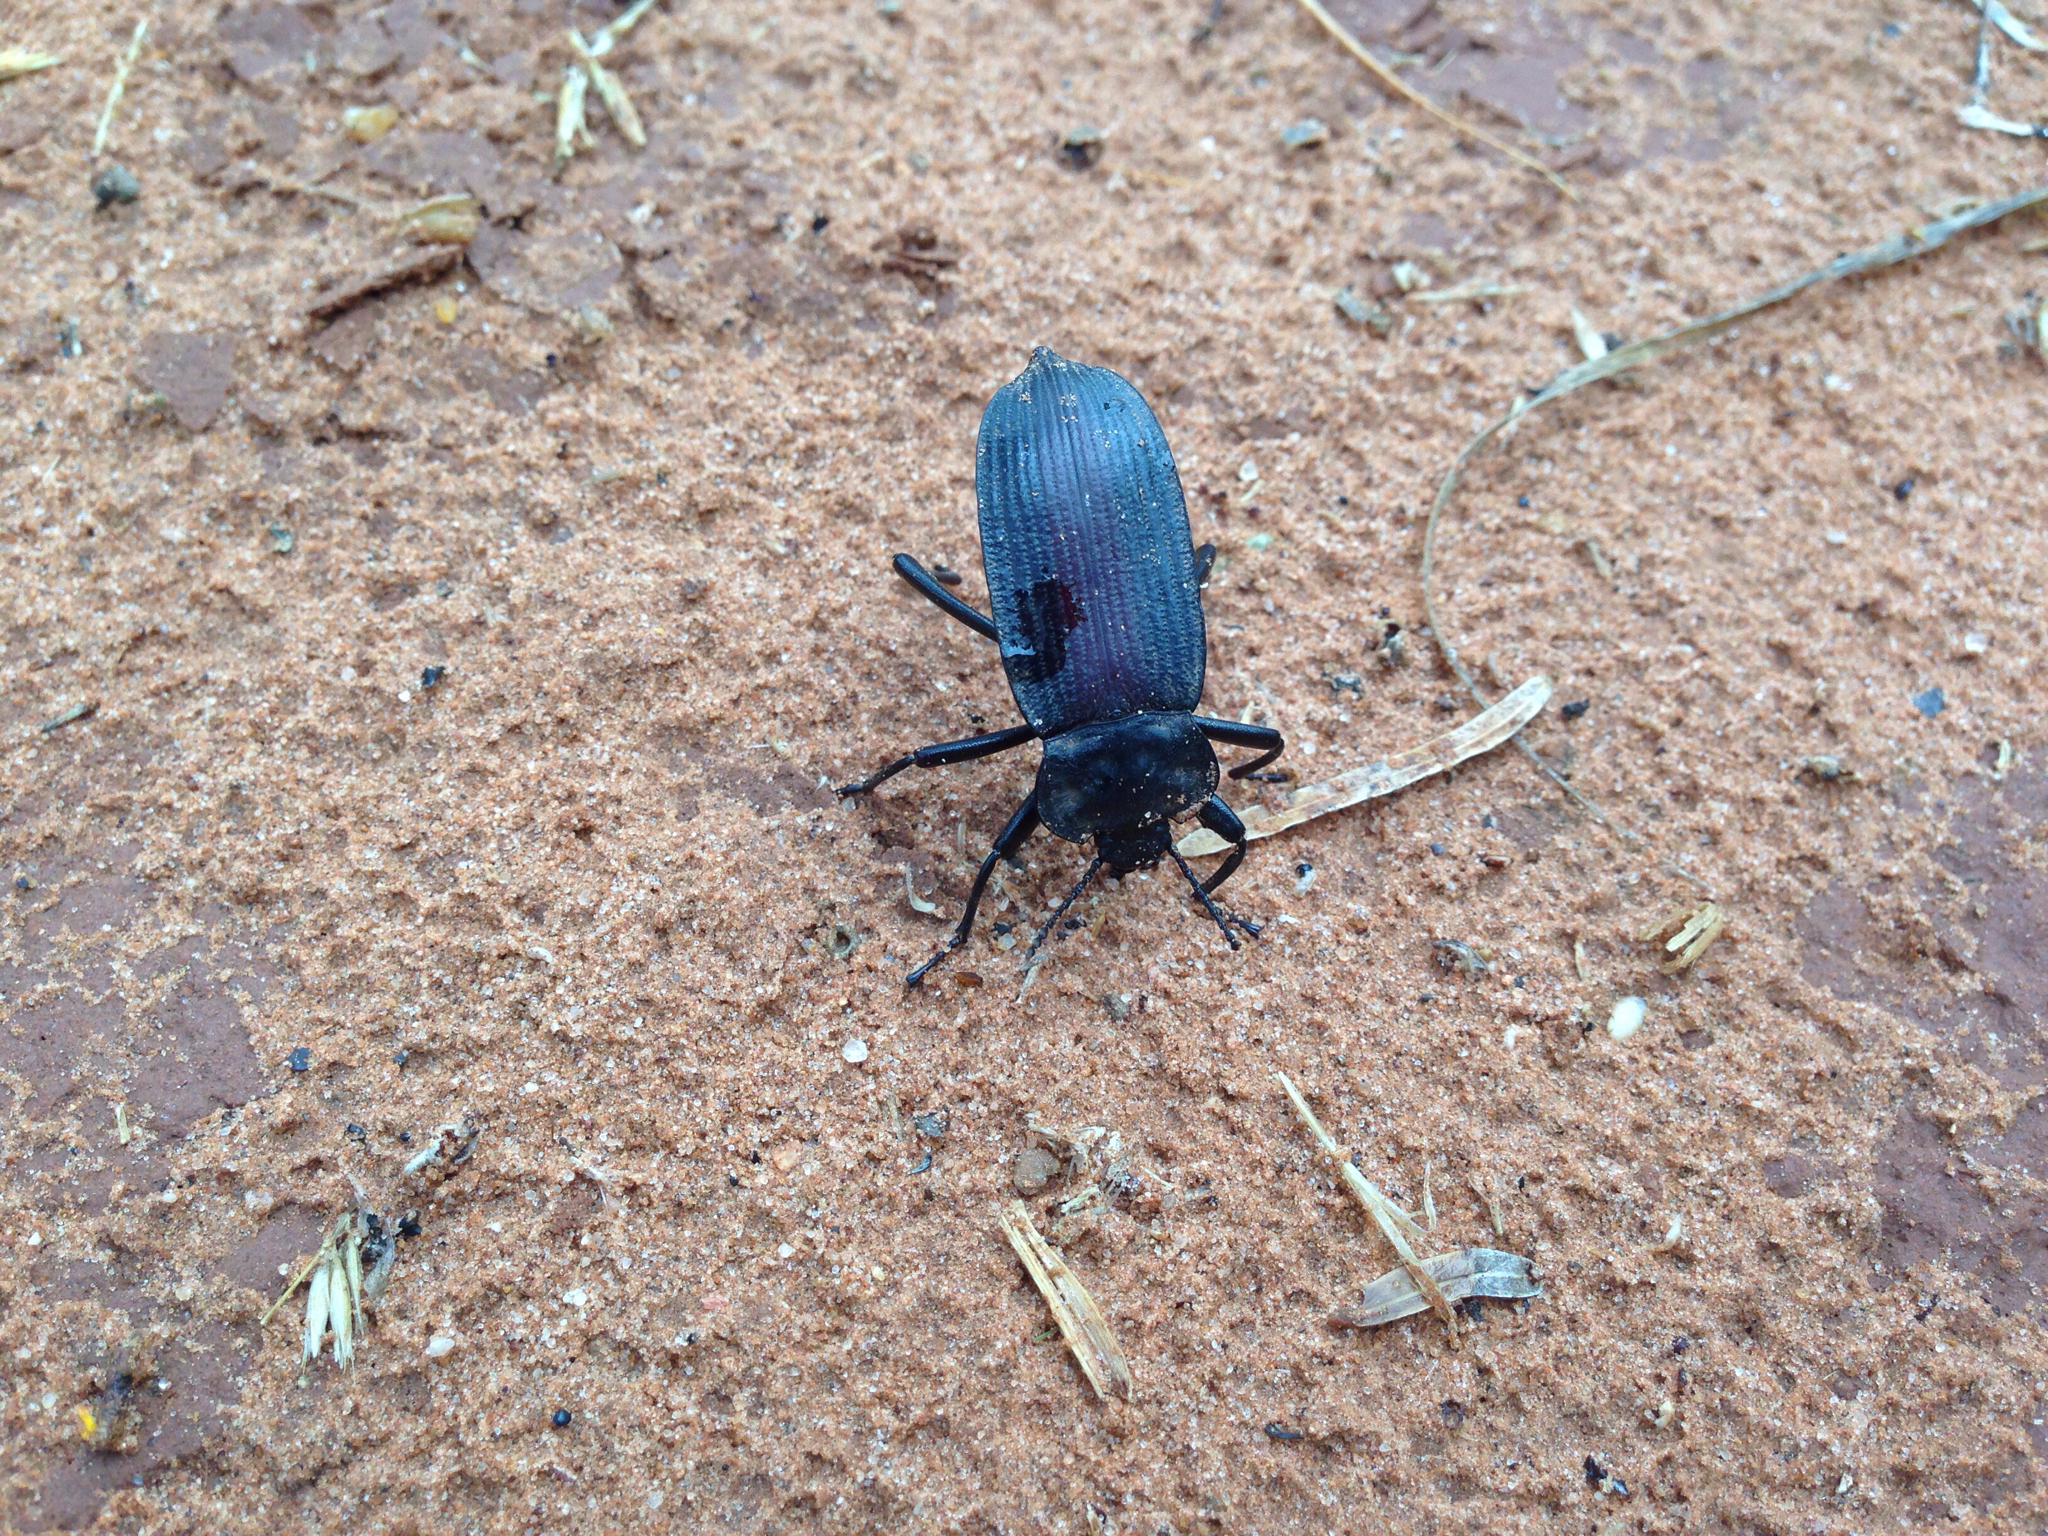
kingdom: Animalia
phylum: Arthropoda
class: Insecta
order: Coleoptera
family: Tenebrionidae
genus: Eleodes
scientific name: Eleodes suturalis
